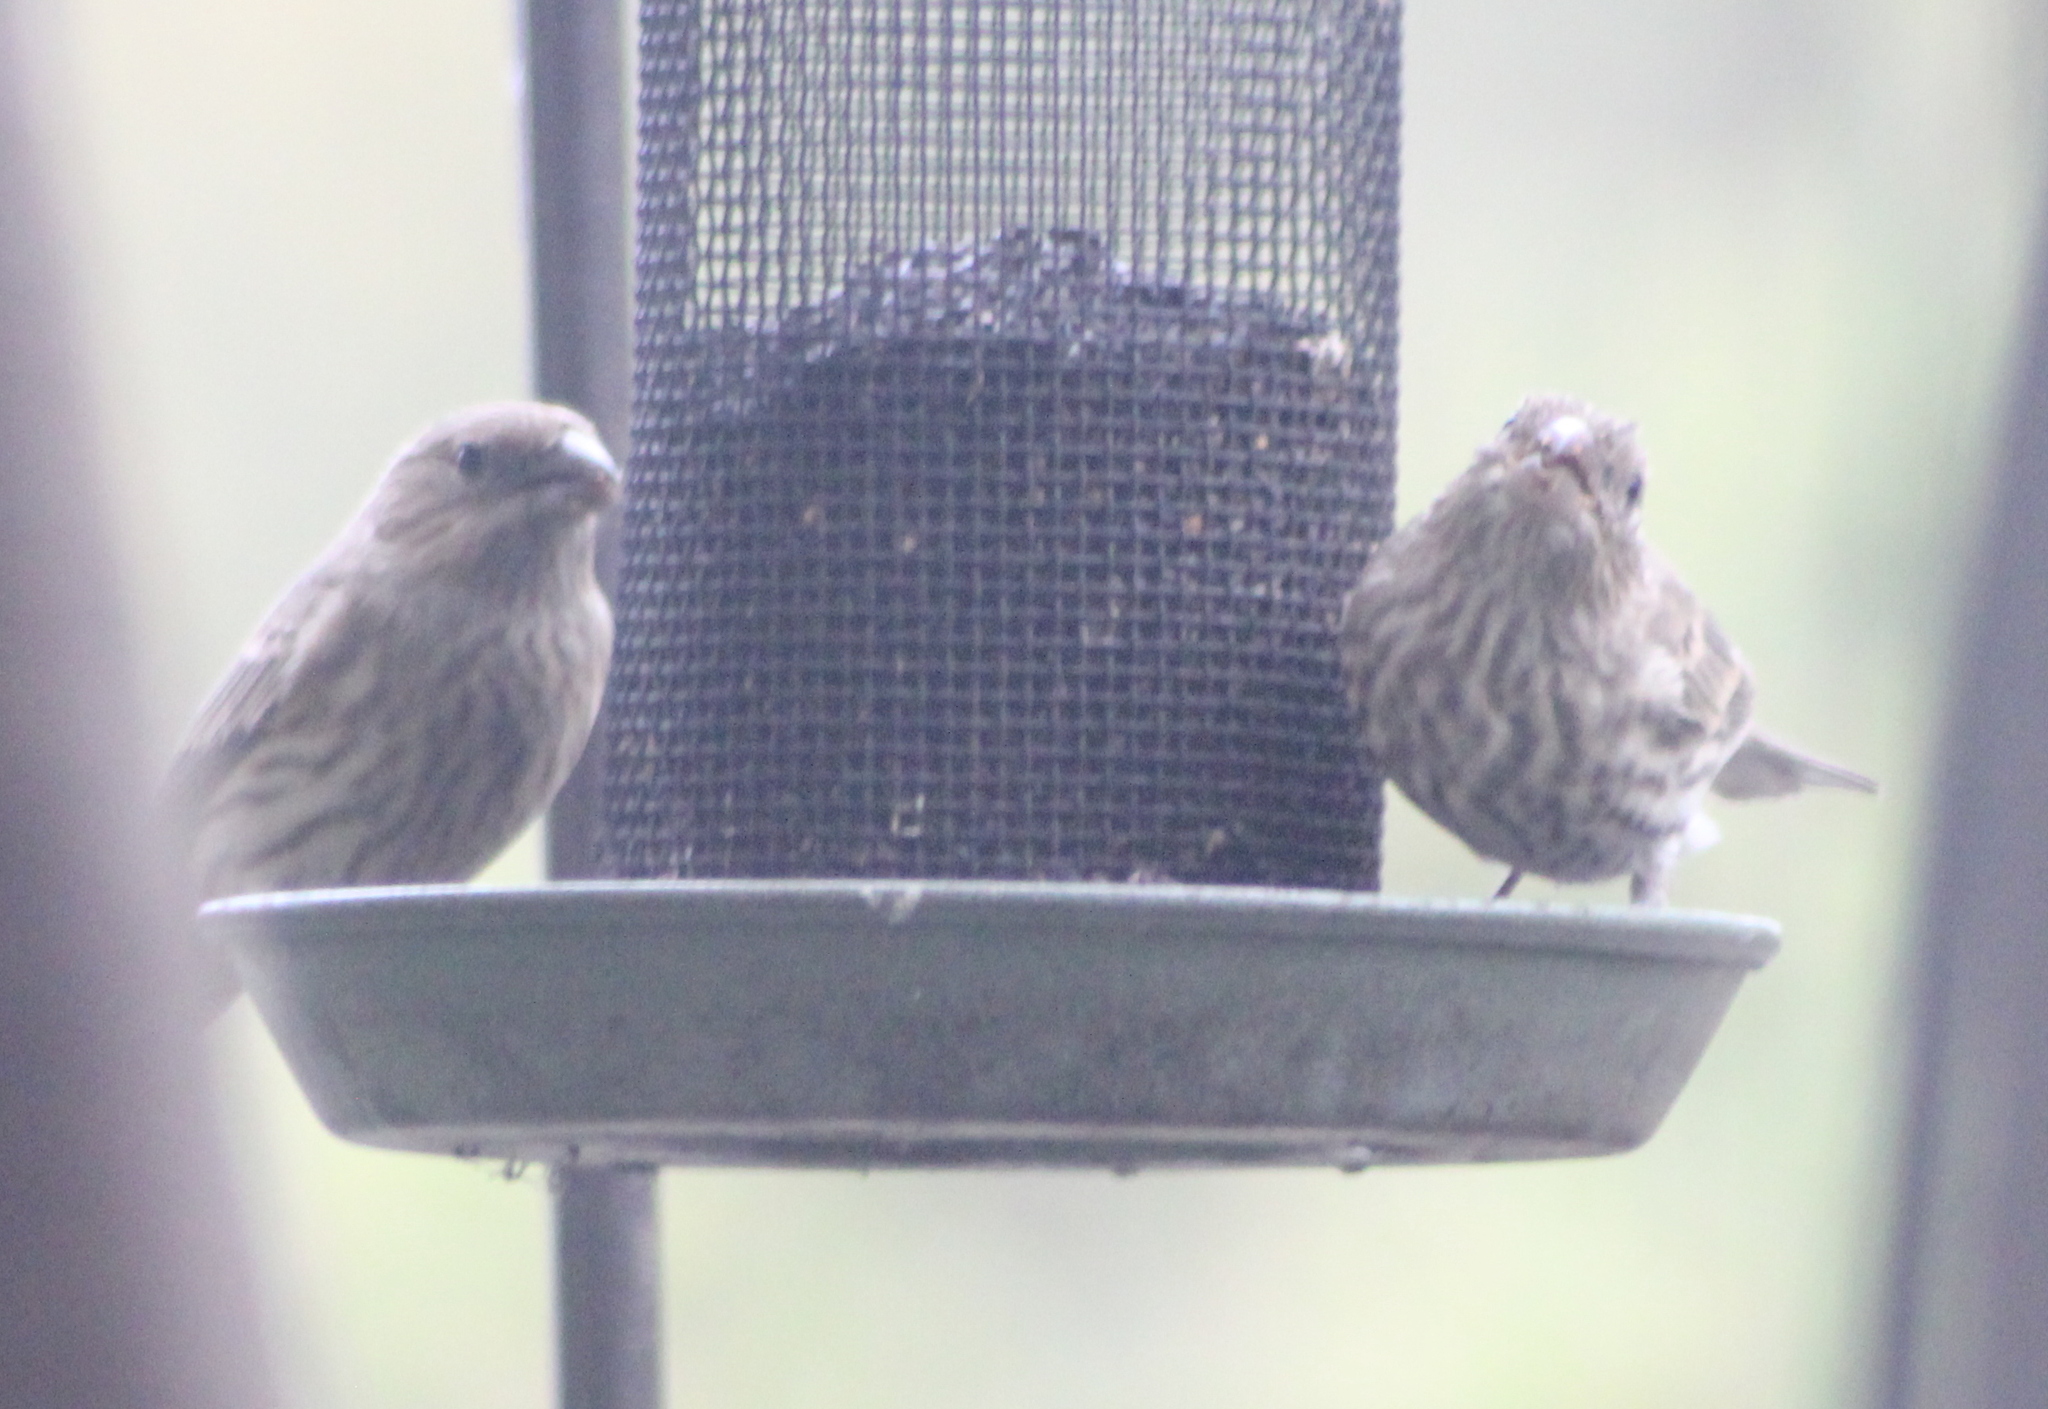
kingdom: Animalia
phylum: Chordata
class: Aves
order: Passeriformes
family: Fringillidae
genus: Haemorhous
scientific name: Haemorhous mexicanus
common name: House finch
